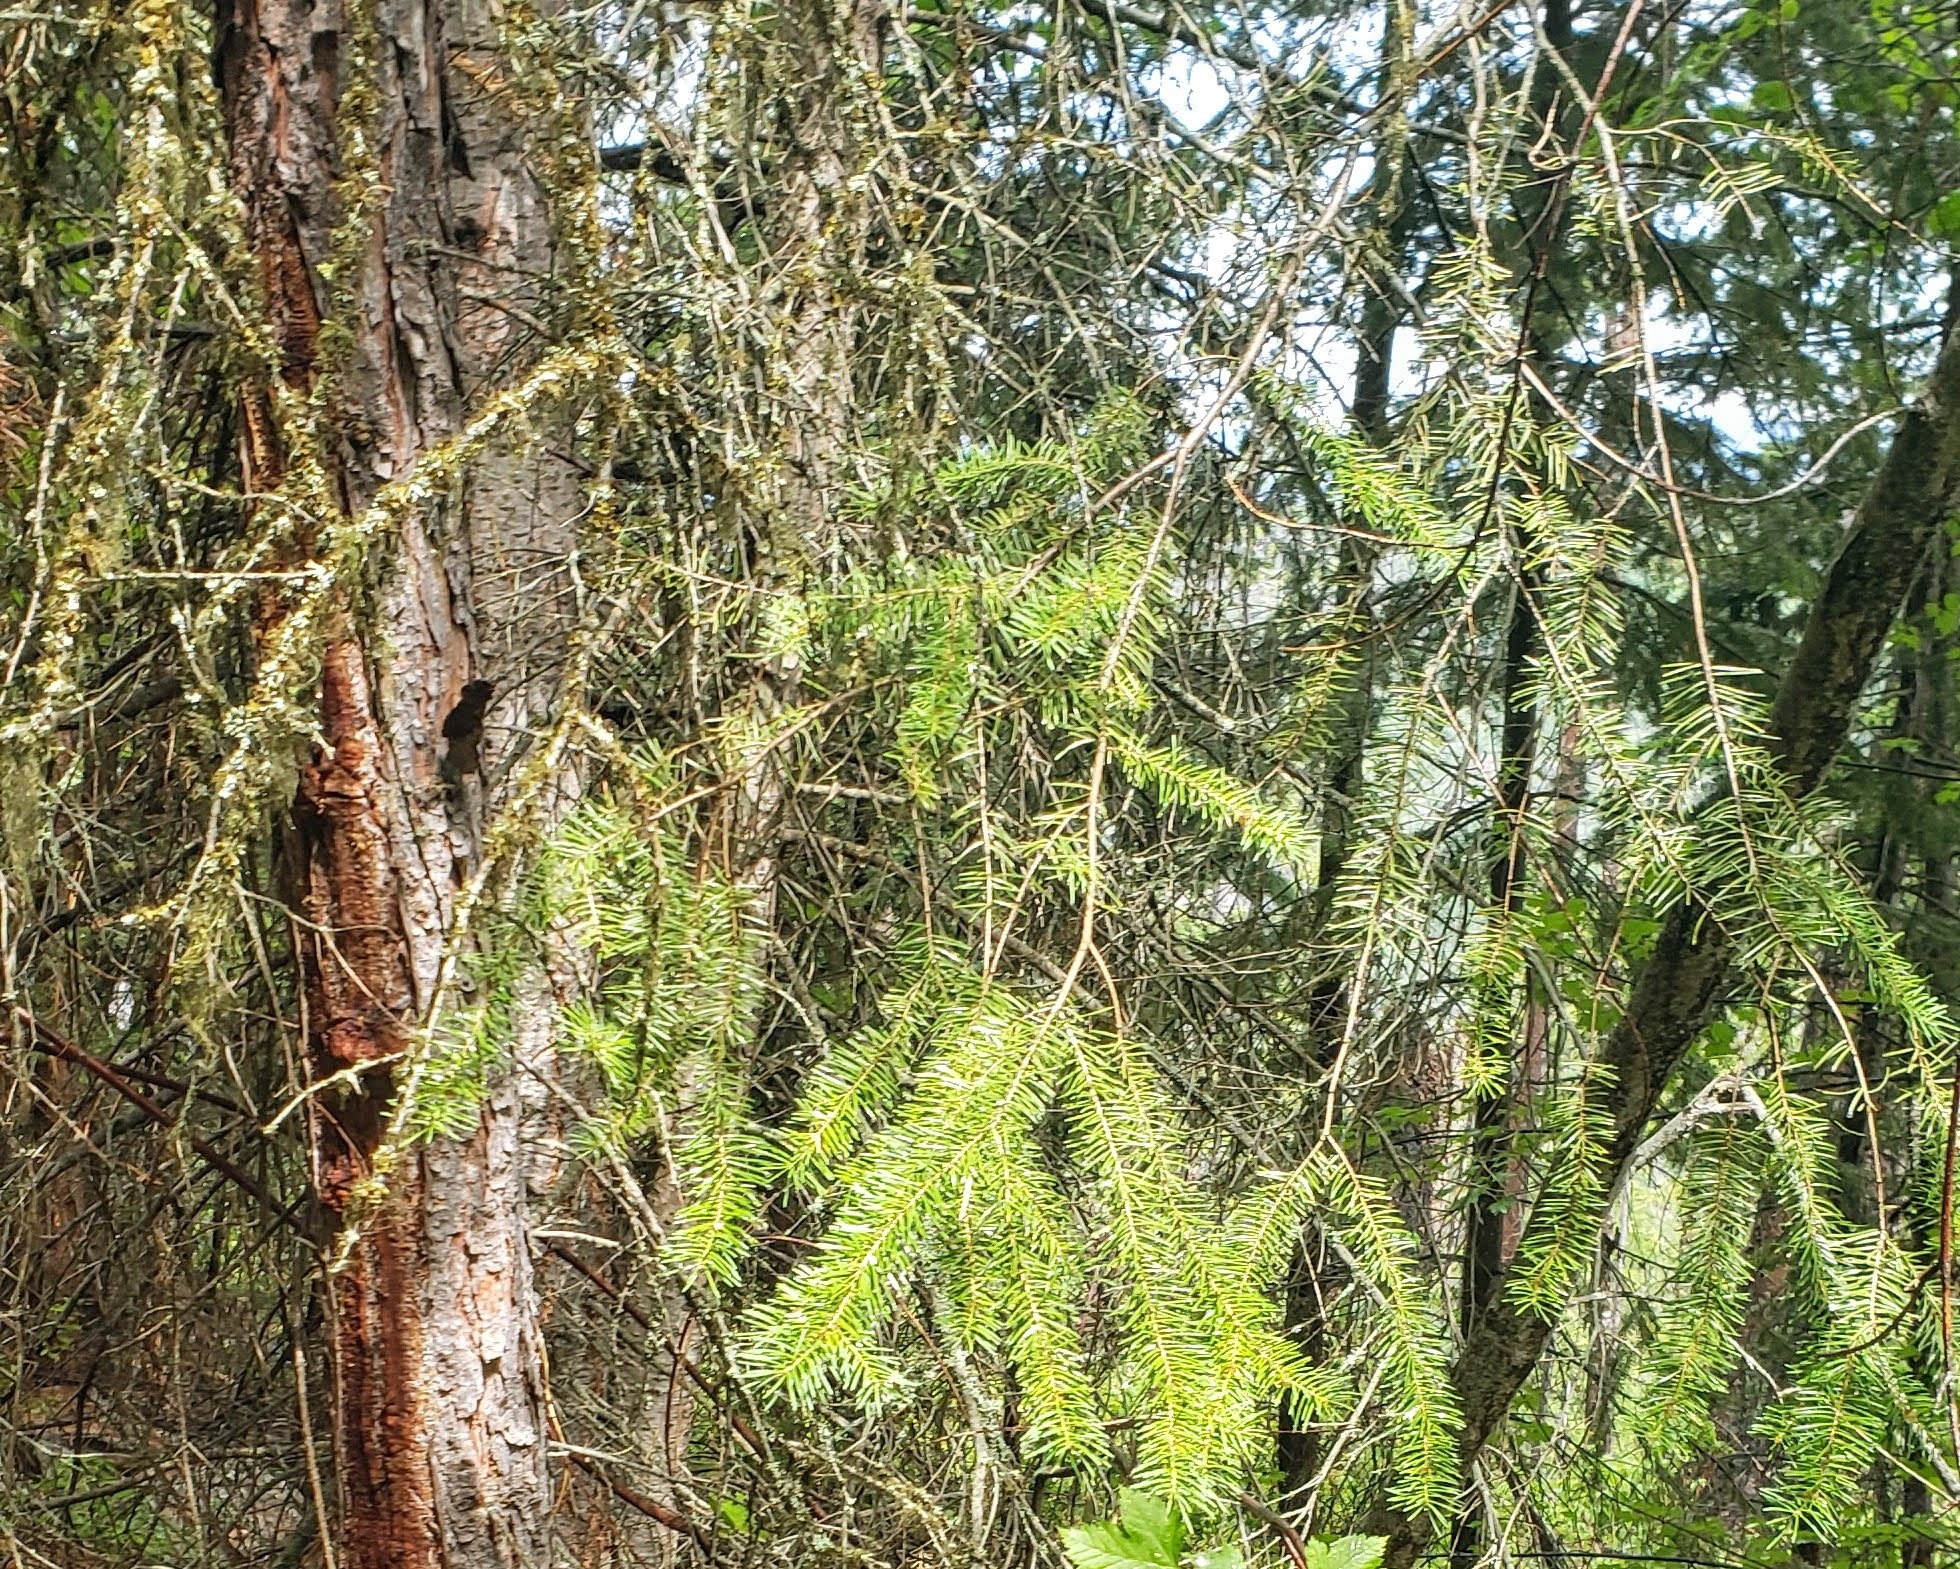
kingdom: Plantae
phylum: Tracheophyta
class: Pinopsida
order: Pinales
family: Pinaceae
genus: Pseudotsuga
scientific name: Pseudotsuga menziesii
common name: Douglas fir
